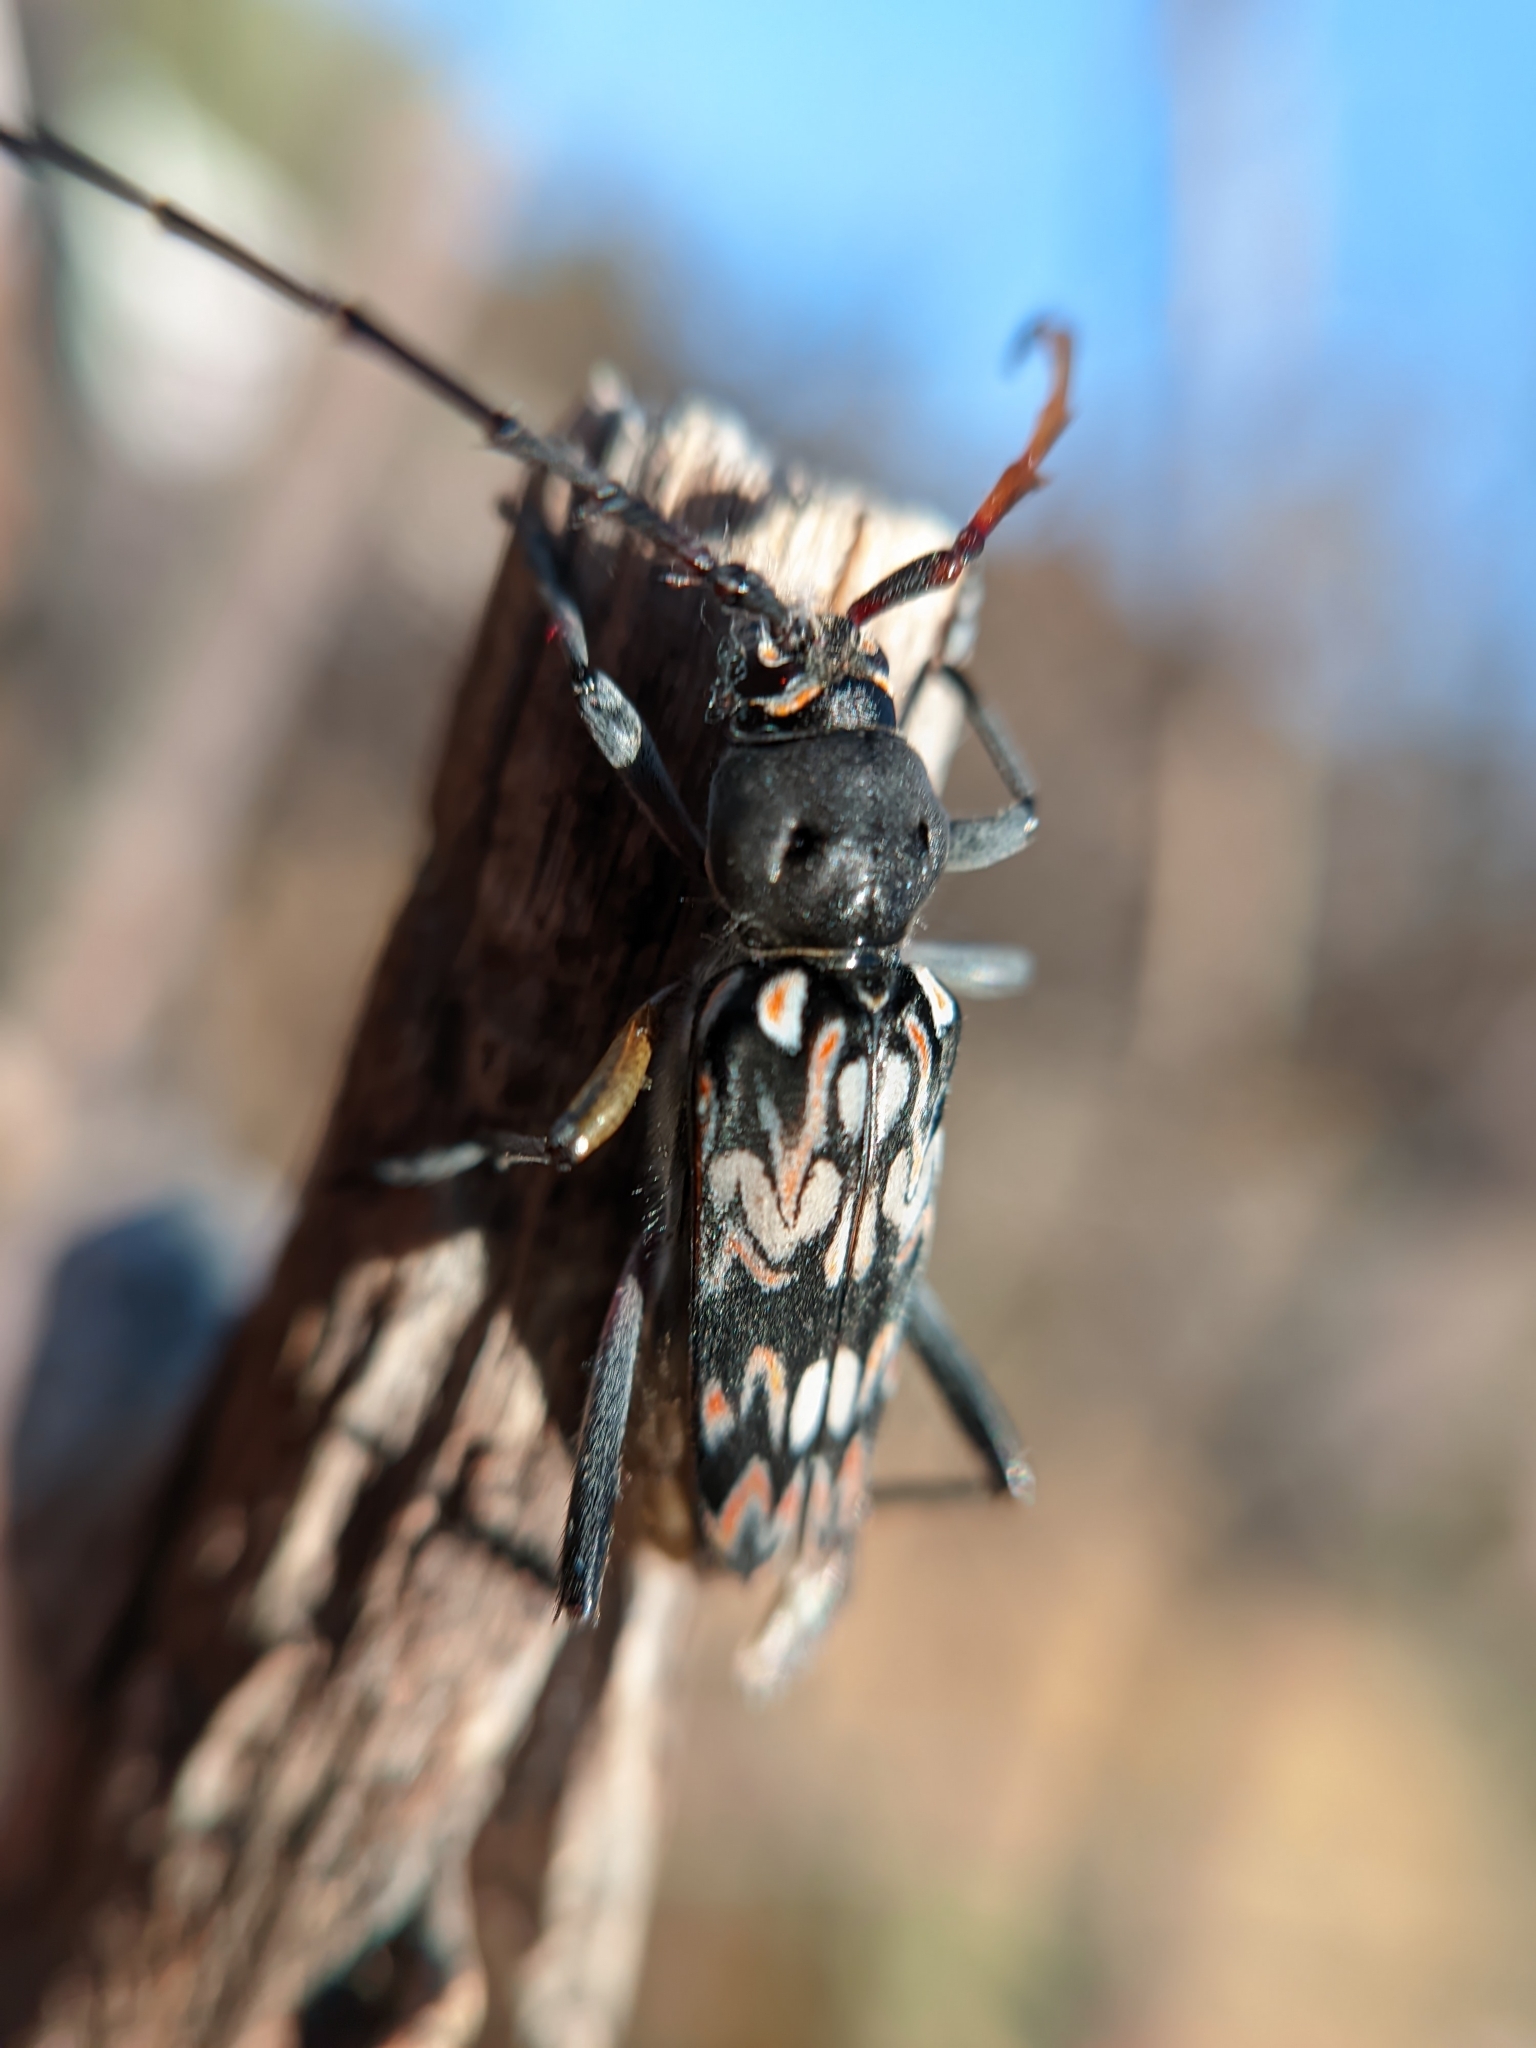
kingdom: Animalia
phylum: Arthropoda
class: Insecta
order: Coleoptera
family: Cerambycidae
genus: Tylcus
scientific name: Tylcus hartwegii
